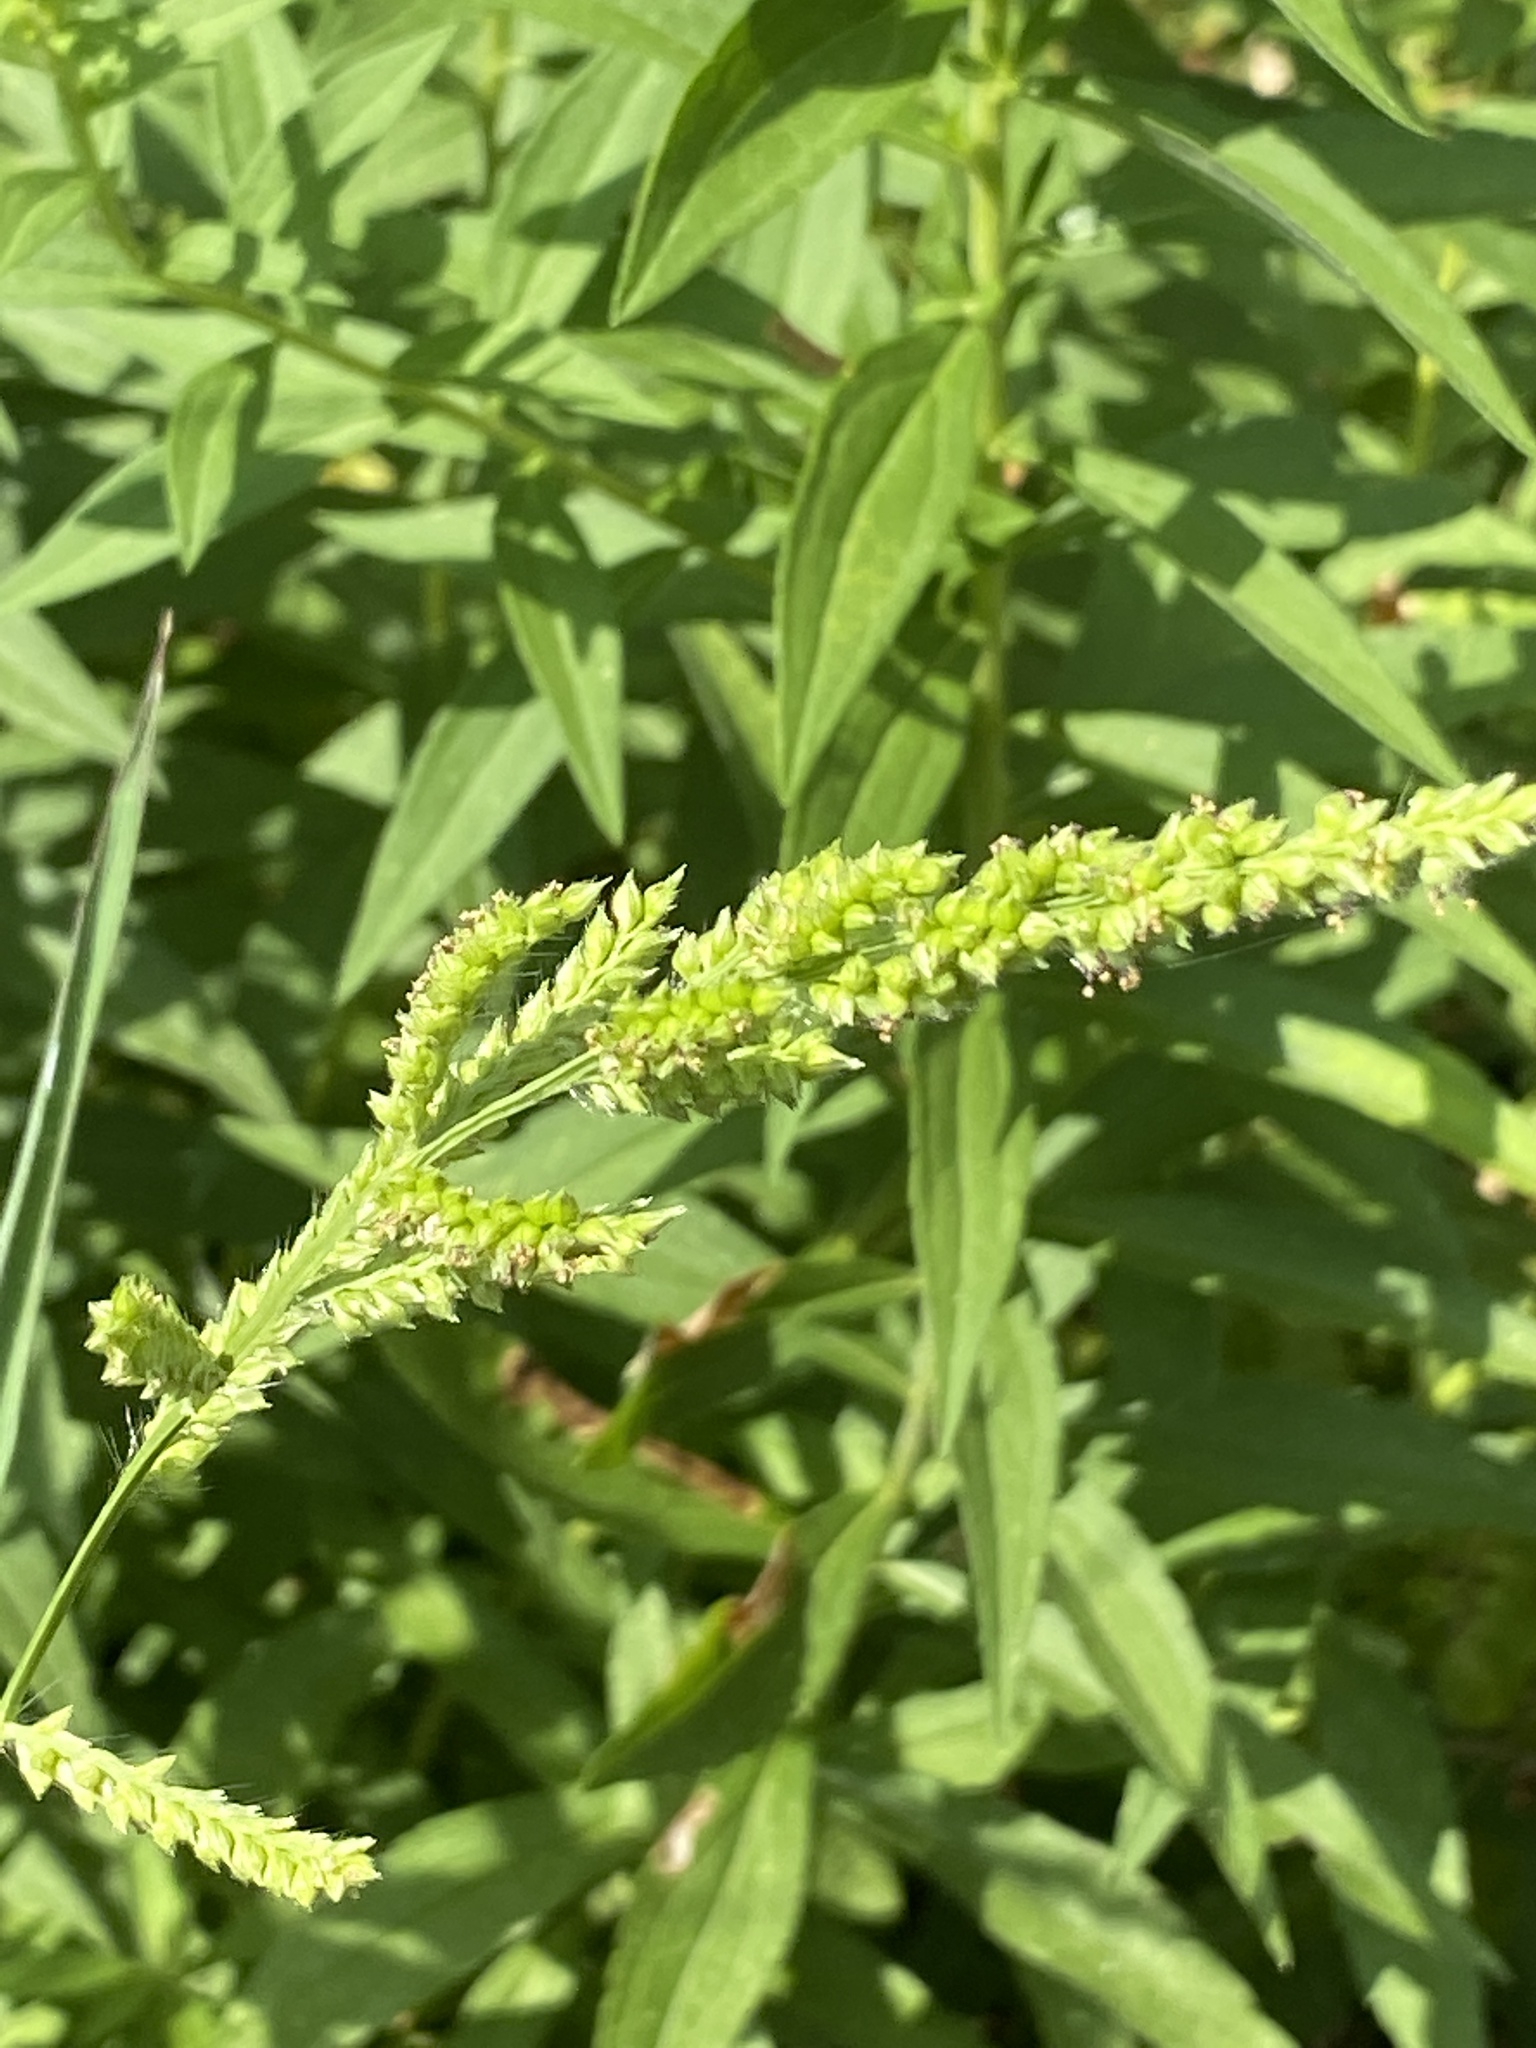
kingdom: Plantae
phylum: Tracheophyta
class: Liliopsida
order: Poales
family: Poaceae
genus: Echinochloa
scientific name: Echinochloa crus-galli
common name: Cockspur
